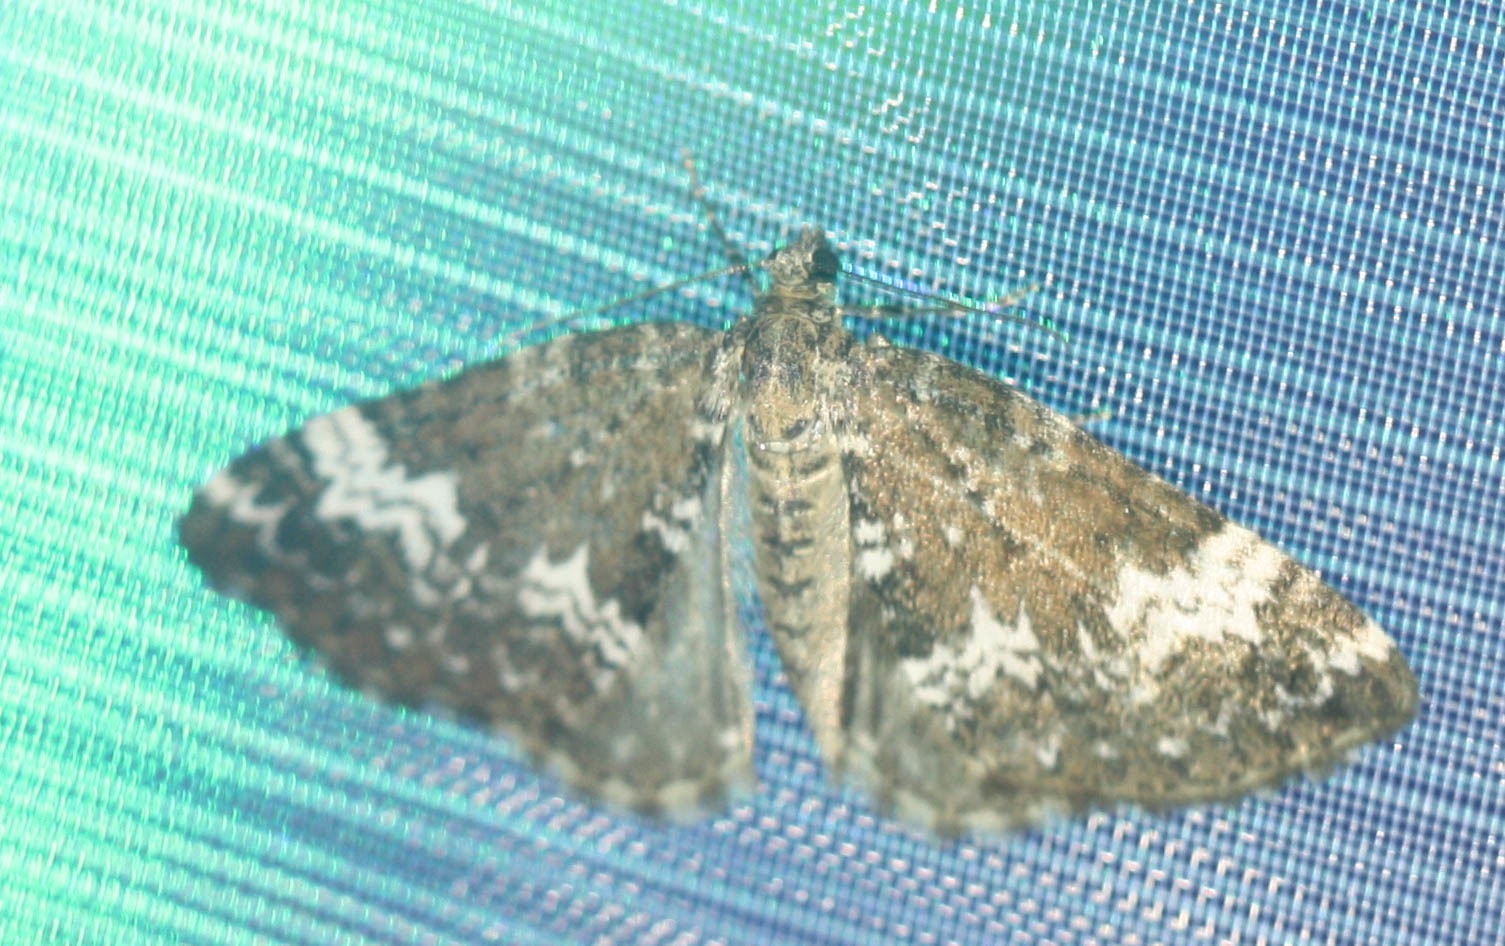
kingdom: Animalia
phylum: Arthropoda
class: Insecta
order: Lepidoptera
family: Geometridae
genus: Perizoma
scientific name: Perizoma alchemillata
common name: Small rivulet
